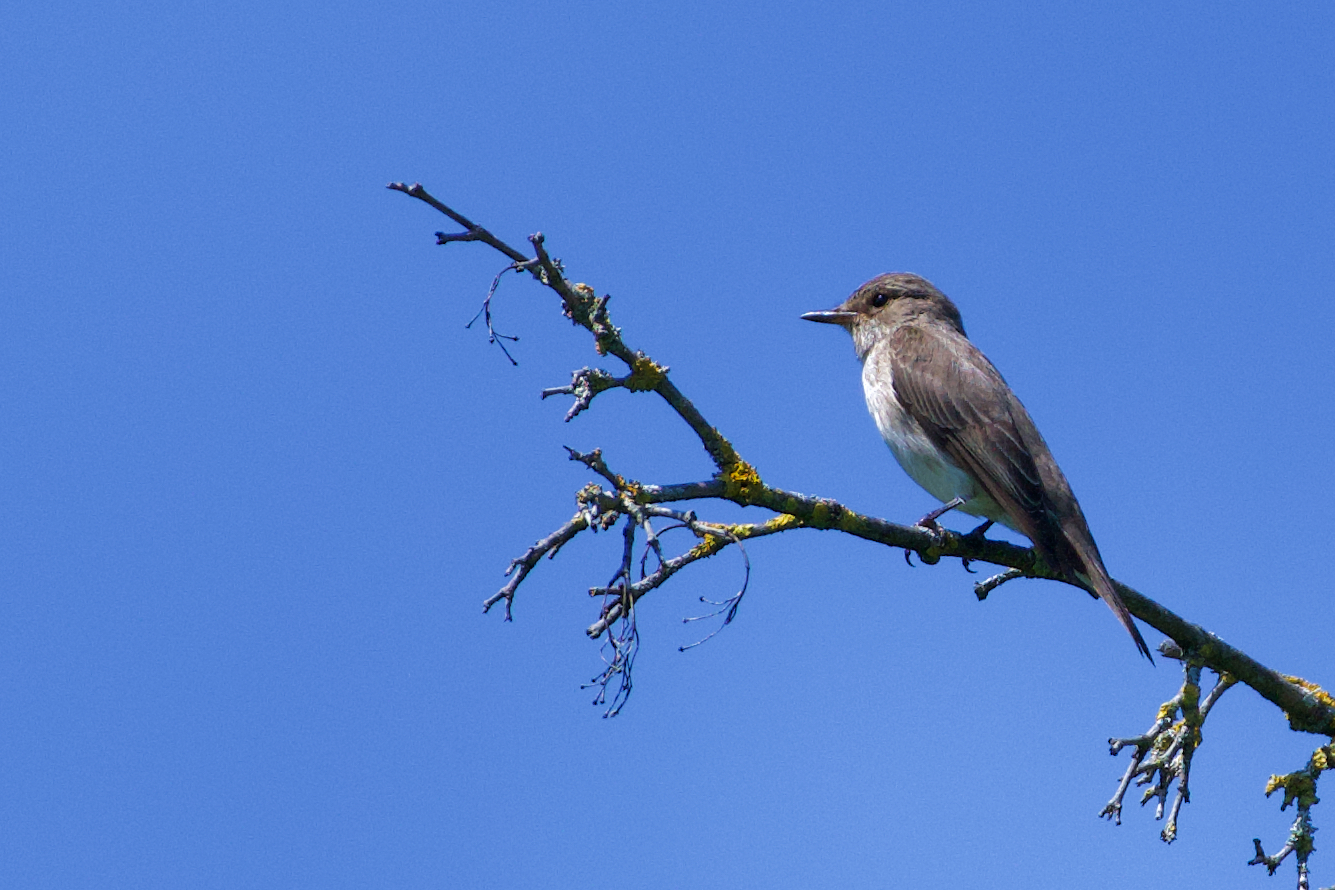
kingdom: Animalia
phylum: Chordata
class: Aves
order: Passeriformes
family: Muscicapidae
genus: Muscicapa
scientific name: Muscicapa striata
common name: Spotted flycatcher
